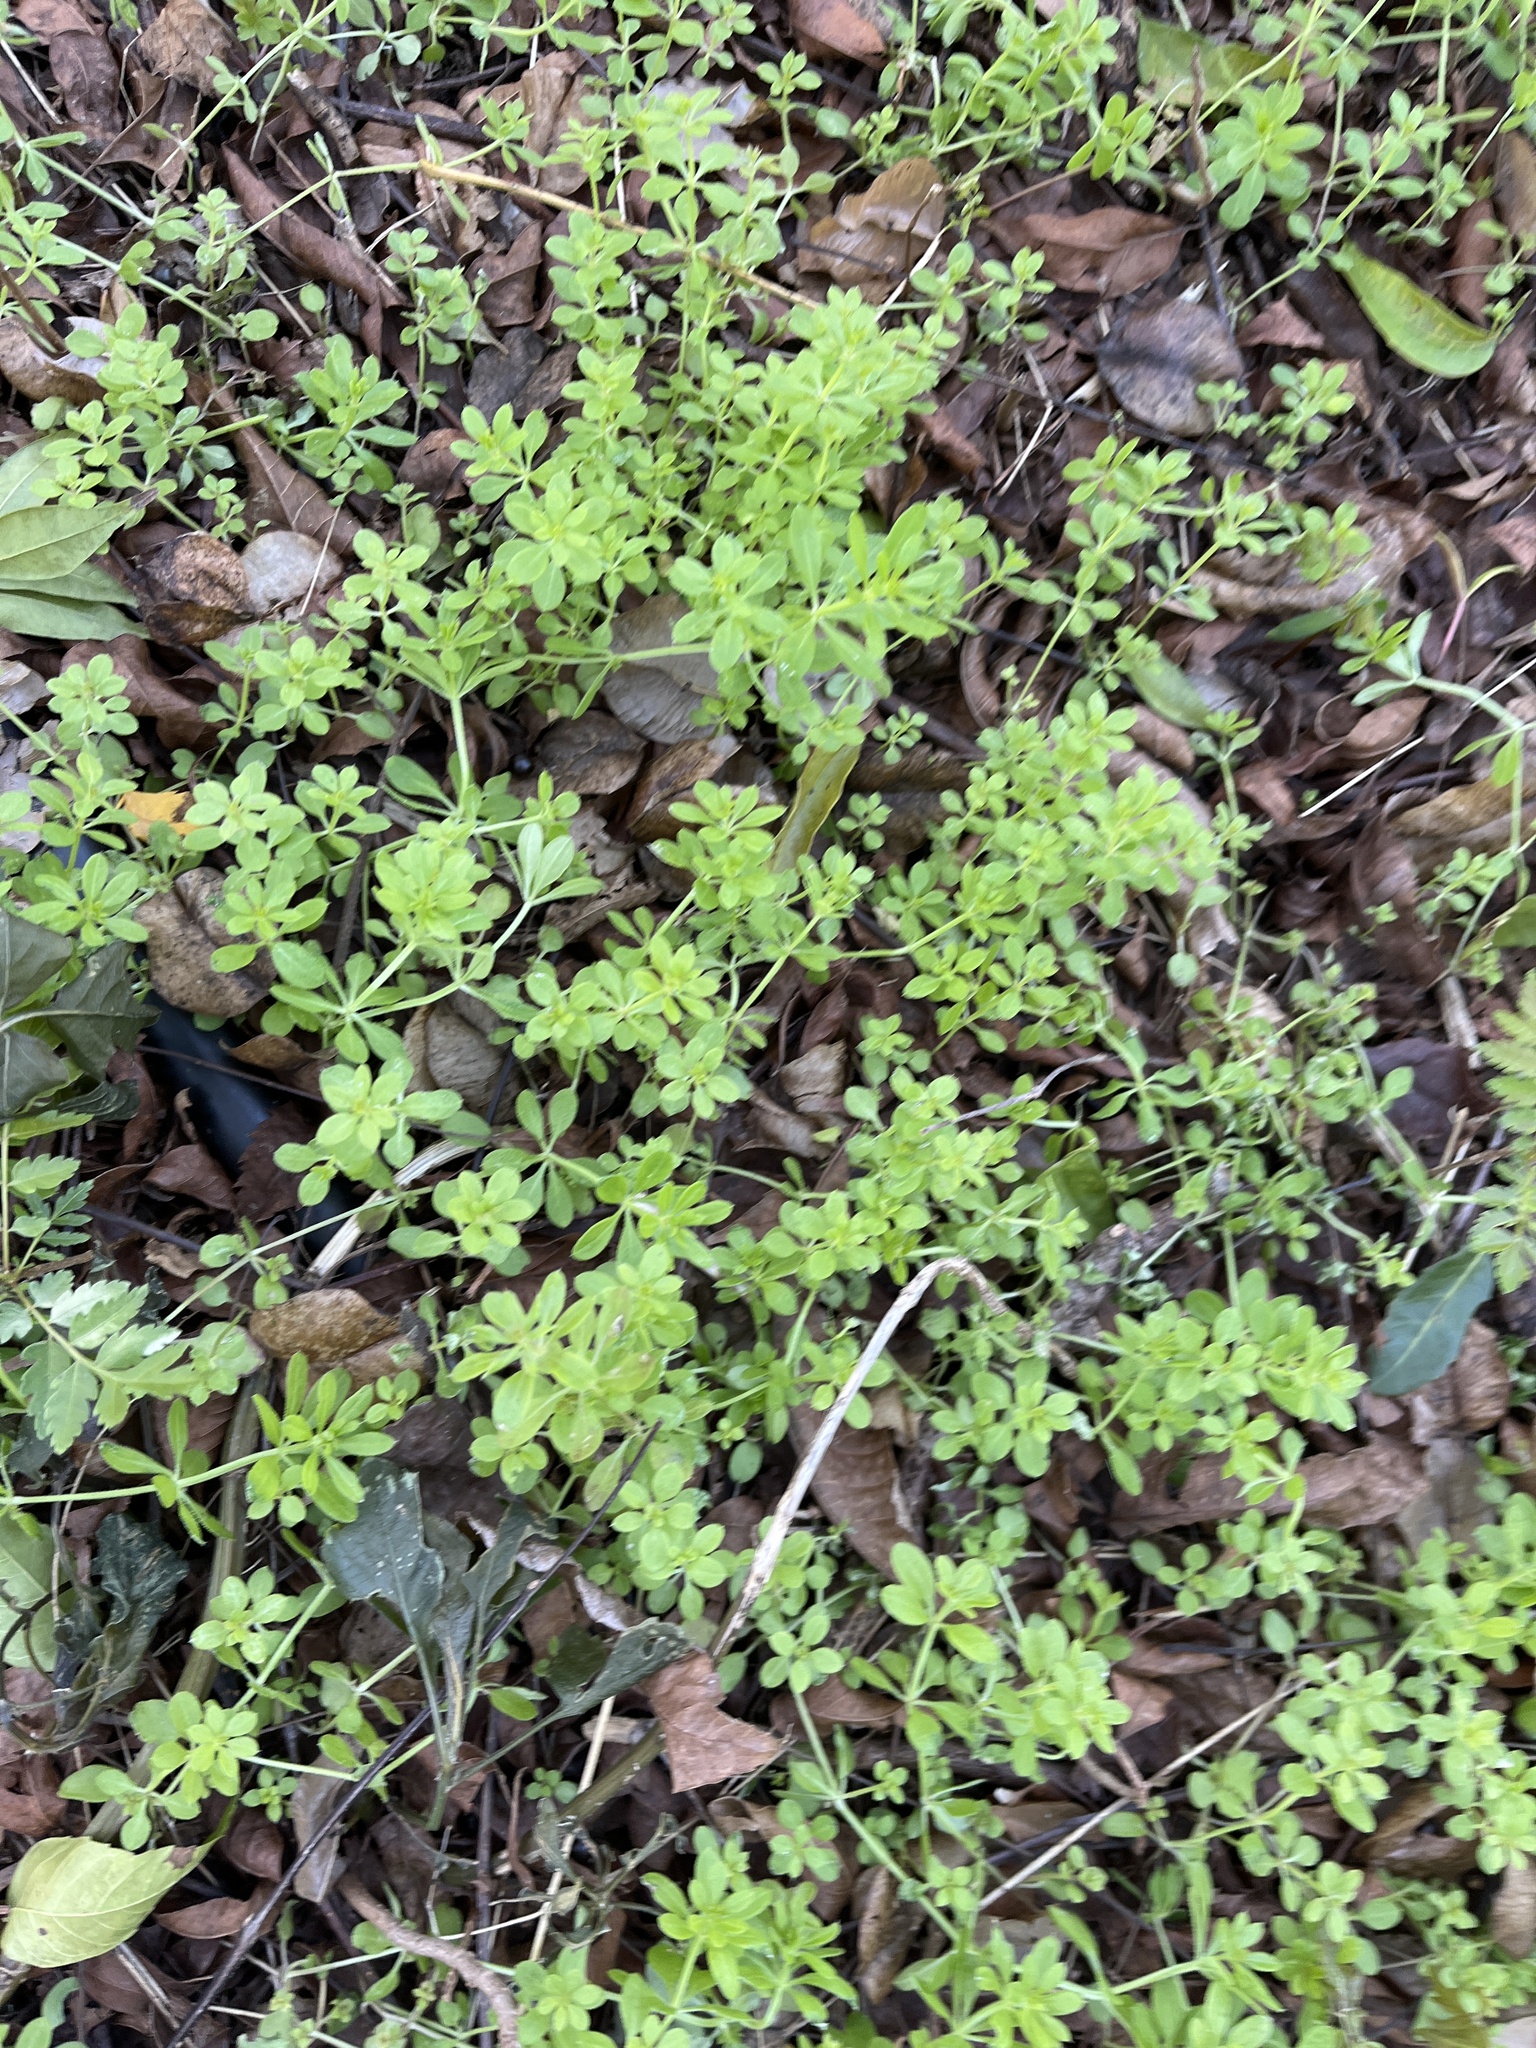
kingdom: Plantae
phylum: Tracheophyta
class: Magnoliopsida
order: Gentianales
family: Rubiaceae
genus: Galium
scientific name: Galium aparine
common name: Cleavers
